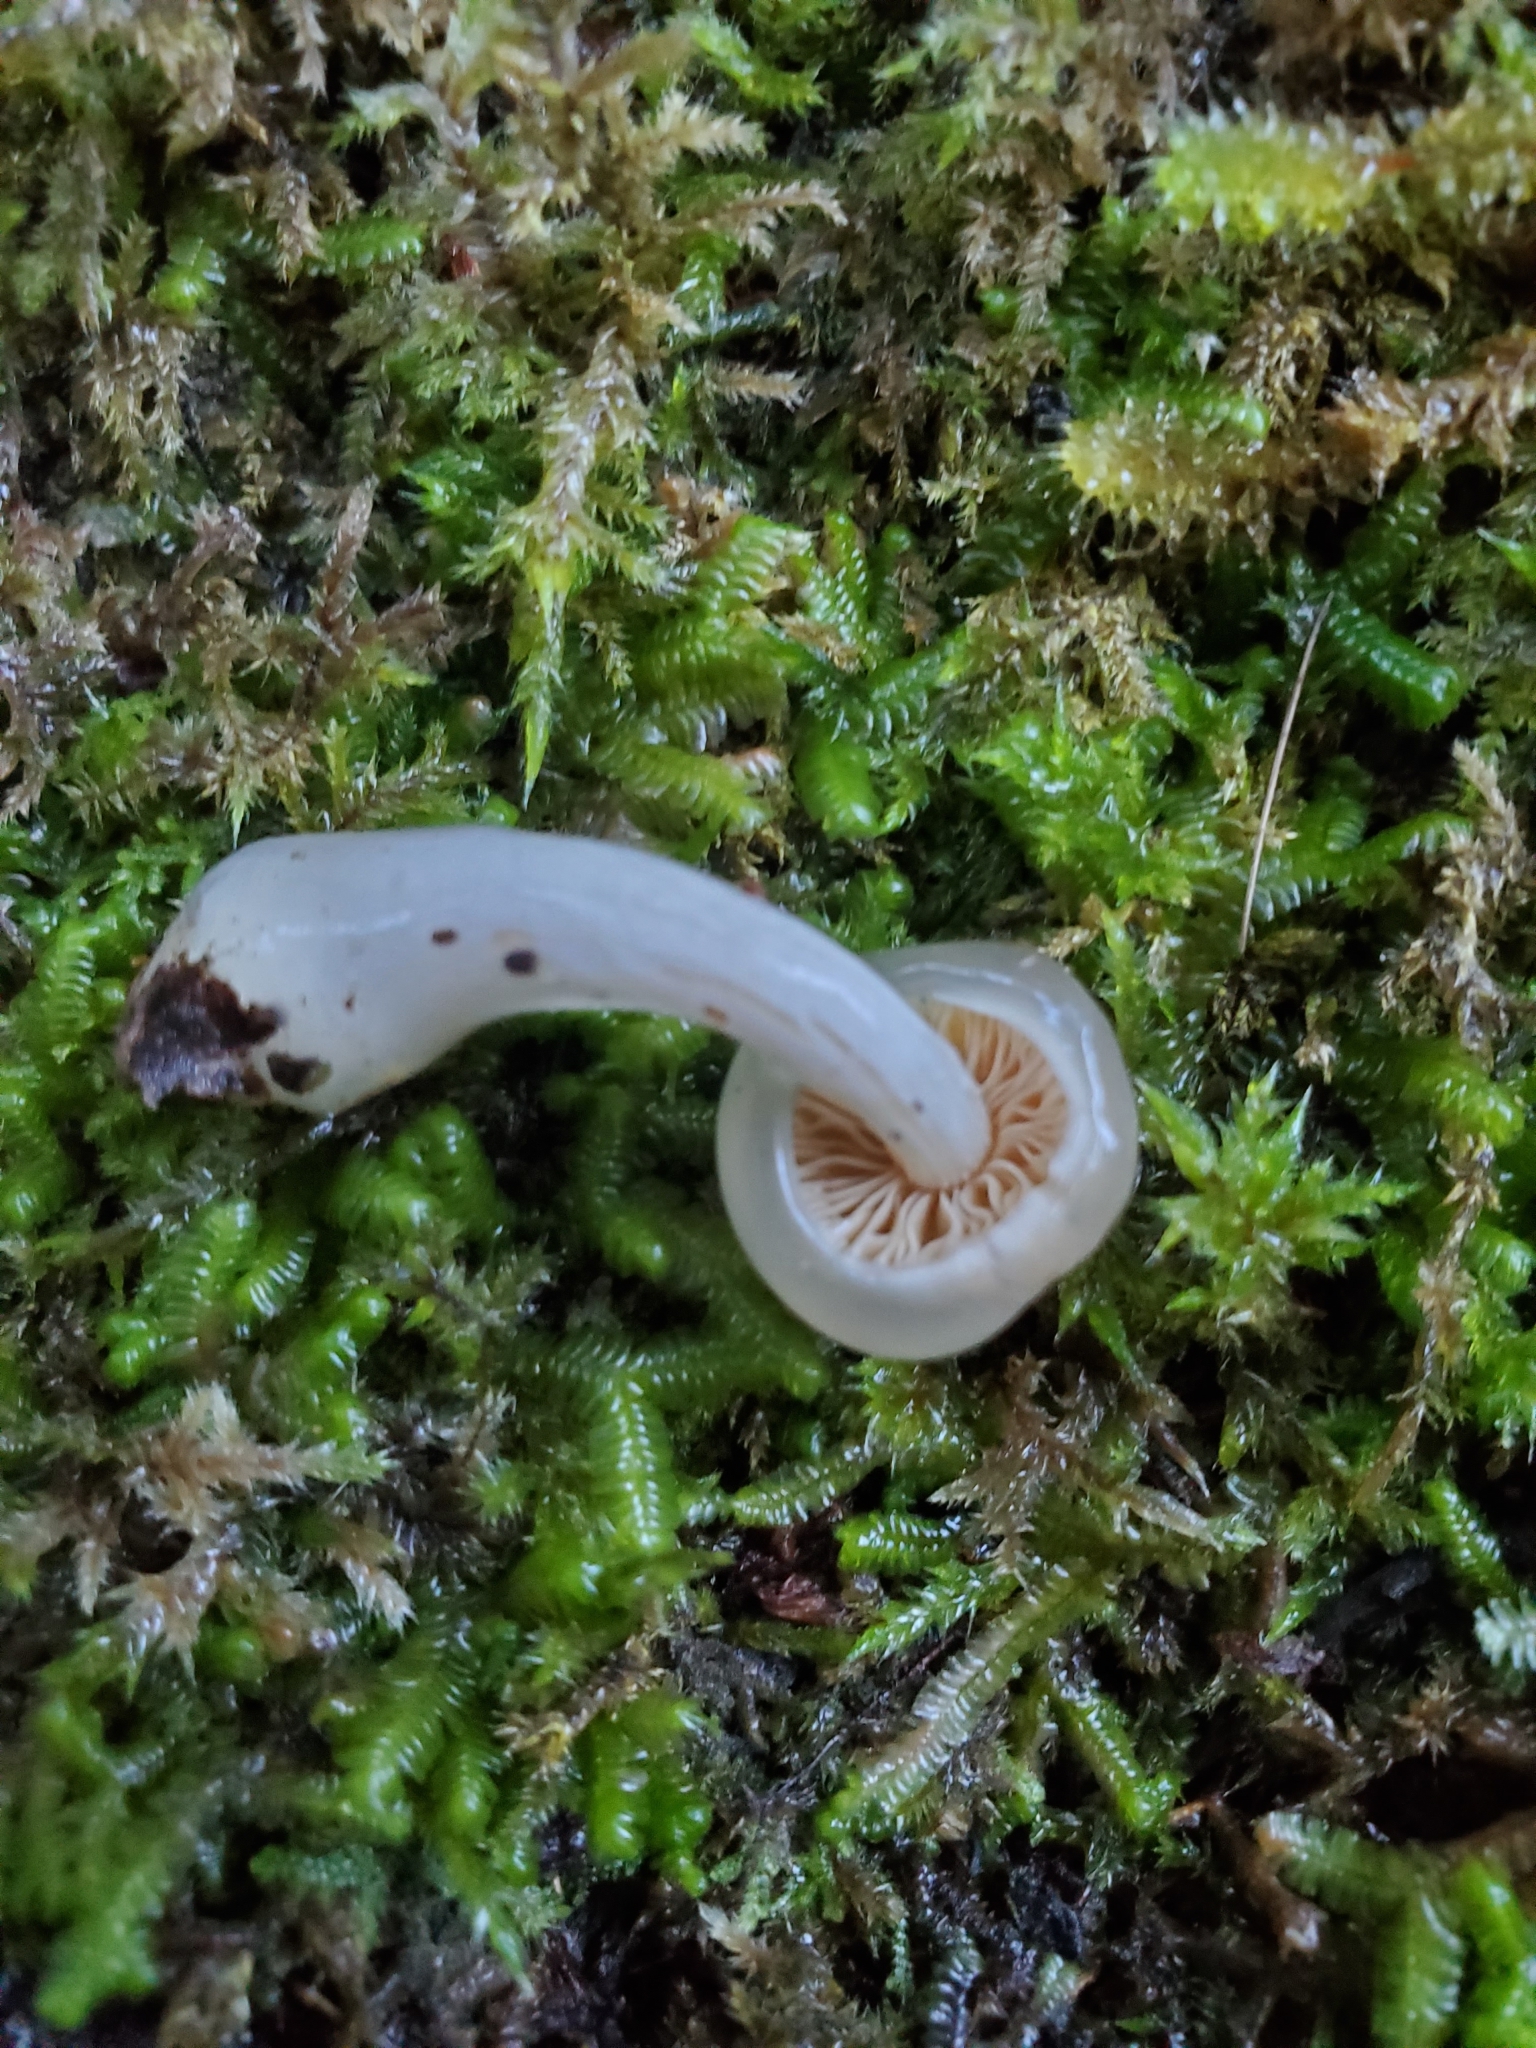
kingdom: Fungi
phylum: Basidiomycota
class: Agaricomycetes
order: Agaricales
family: Cortinariaceae
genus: Cortinarius
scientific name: Cortinarius lubricanescens
